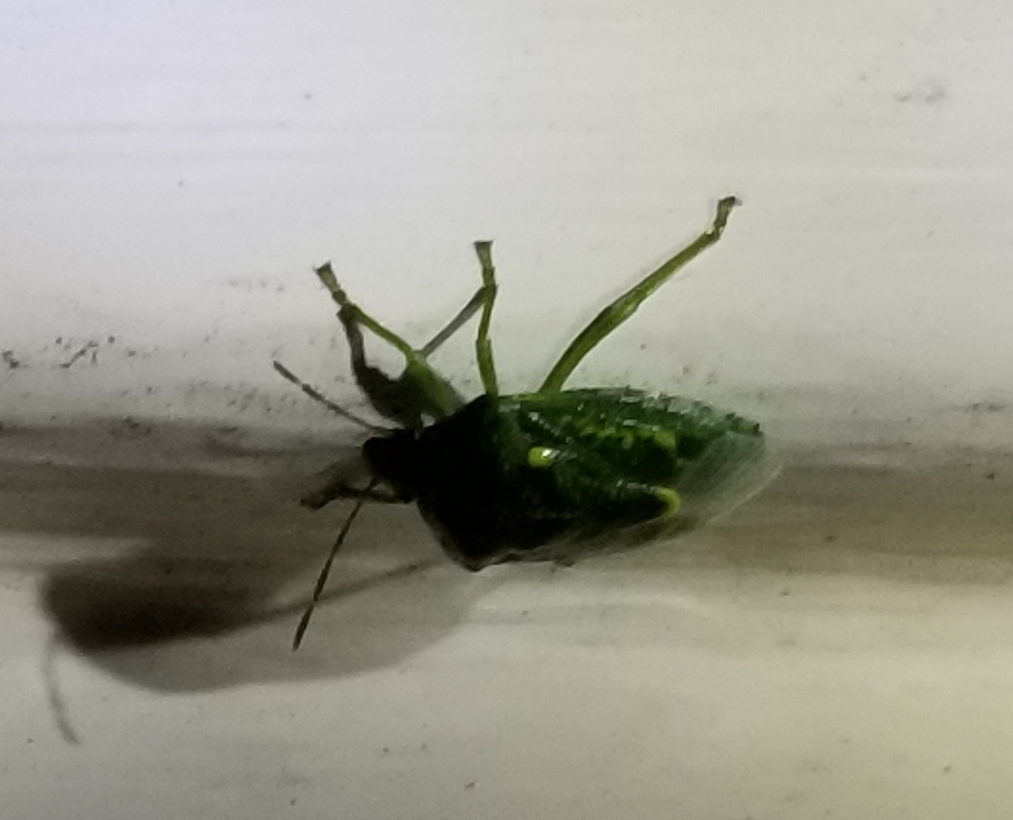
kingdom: Animalia
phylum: Arthropoda
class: Insecta
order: Hemiptera
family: Pentatomidae
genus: Banasa
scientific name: Banasa euchlora
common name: Cedar berry bug
